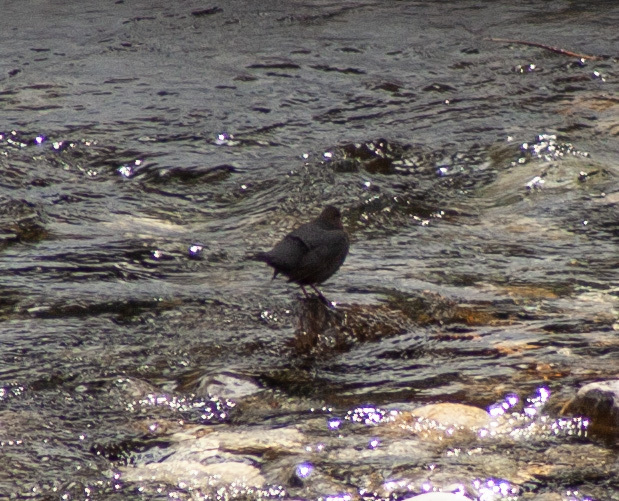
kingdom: Animalia
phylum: Chordata
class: Aves
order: Passeriformes
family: Cinclidae
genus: Cinclus
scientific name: Cinclus mexicanus
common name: American dipper
